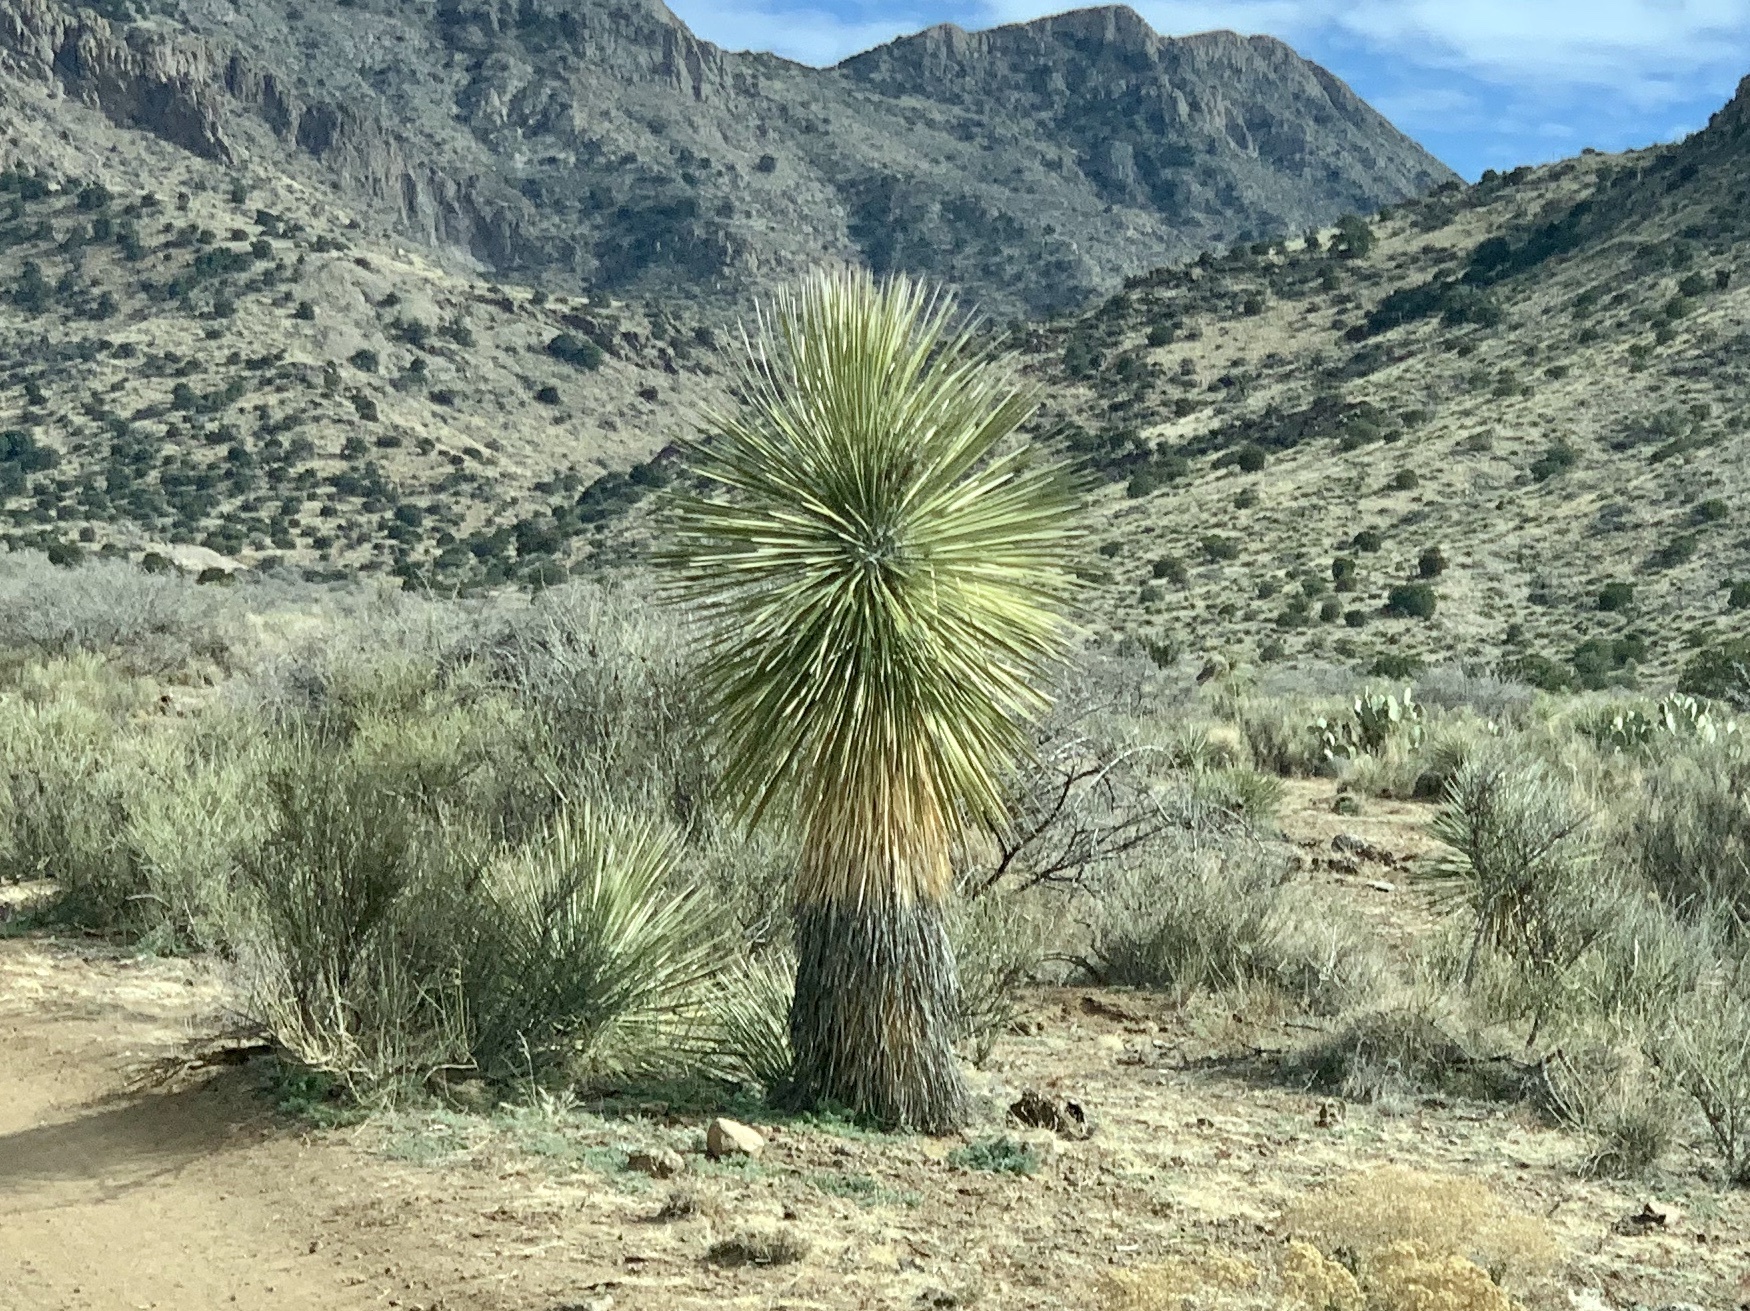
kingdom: Plantae
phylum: Tracheophyta
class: Liliopsida
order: Asparagales
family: Asparagaceae
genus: Yucca
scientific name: Yucca elata
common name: Palmella
